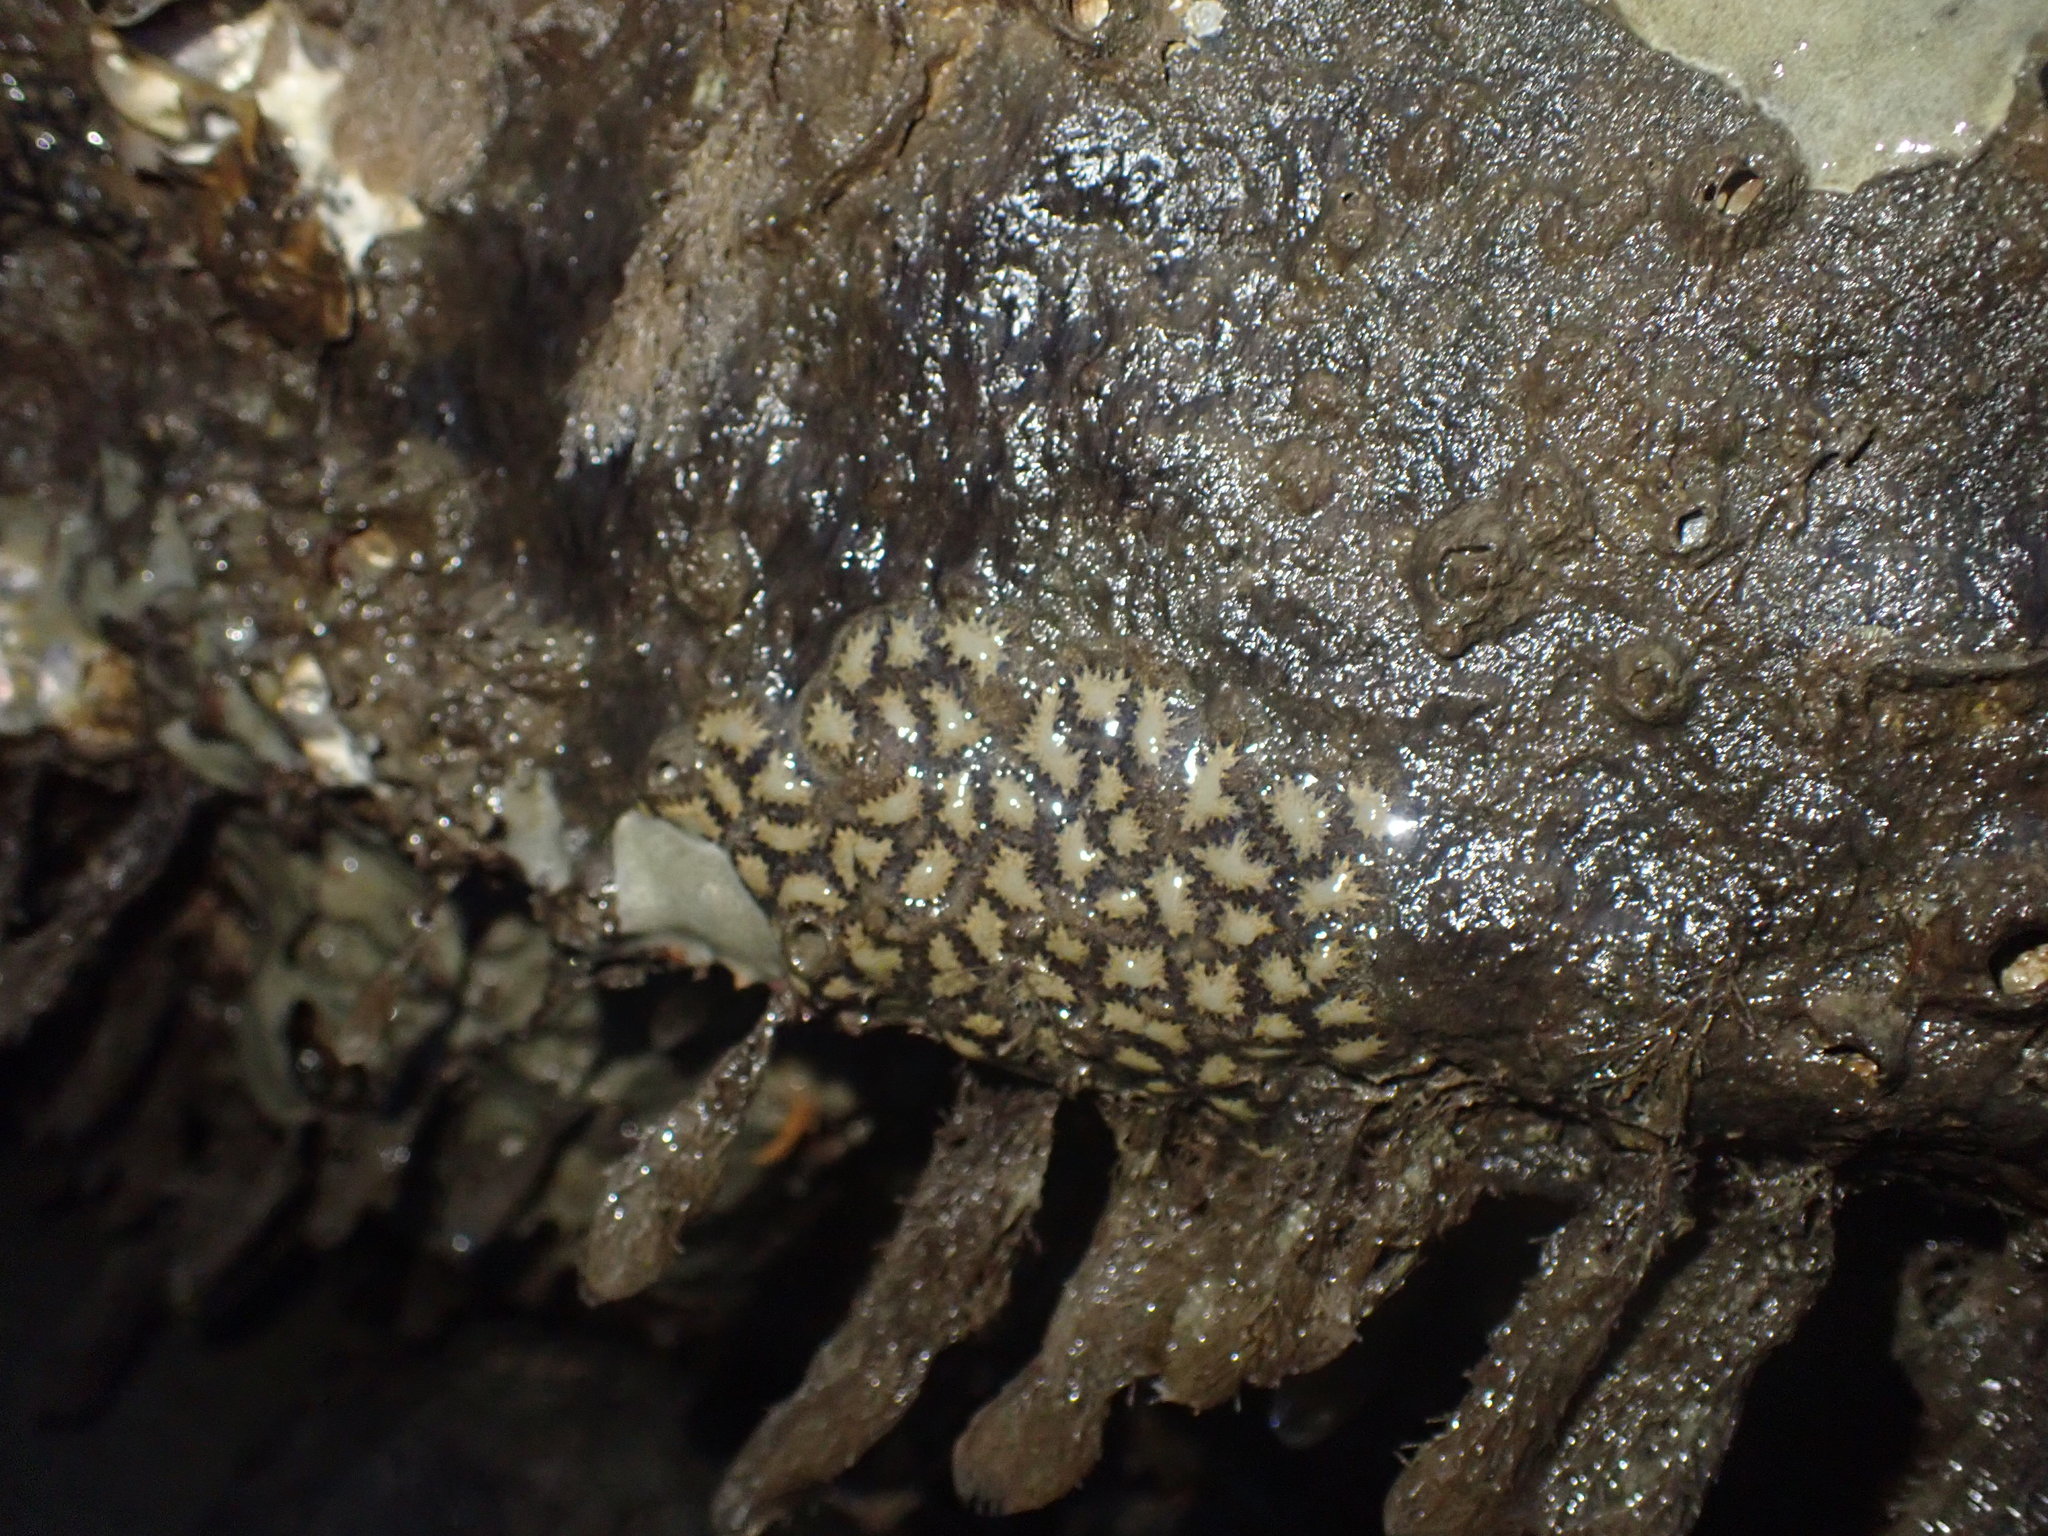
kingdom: Animalia
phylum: Chordata
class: Ascidiacea
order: Stolidobranchia
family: Styelidae
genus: Botryllus
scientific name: Botryllus schlosseri
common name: Golden star tunicate
